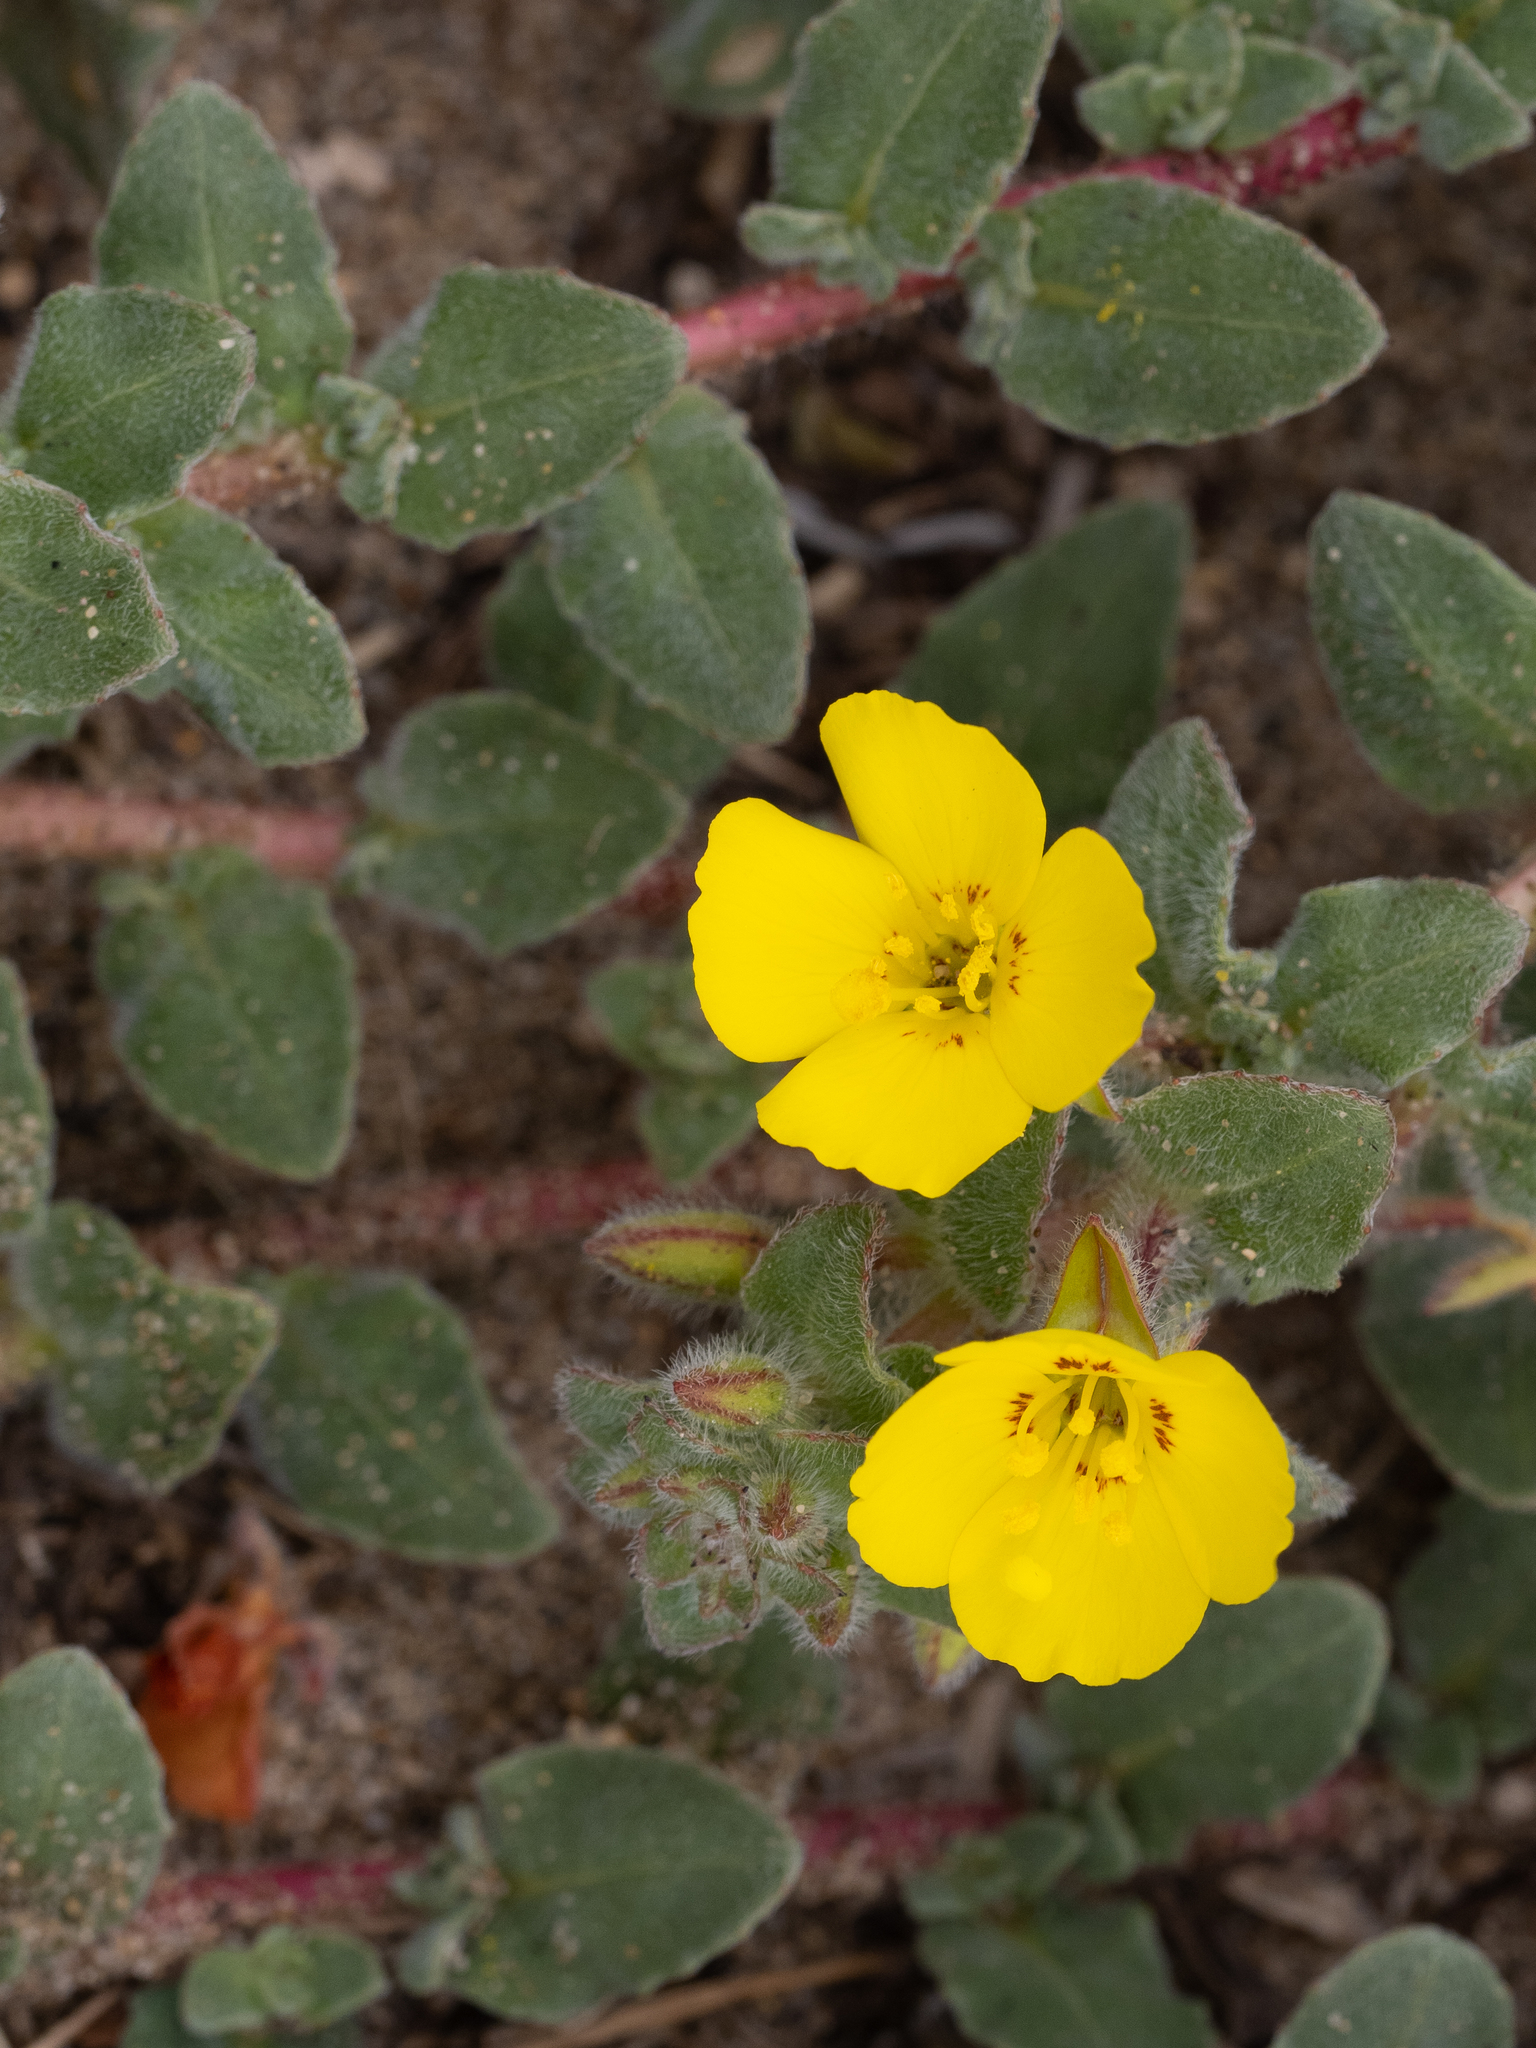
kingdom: Plantae
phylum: Tracheophyta
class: Magnoliopsida
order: Myrtales
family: Onagraceae
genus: Camissoniopsis
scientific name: Camissoniopsis cheiranthifolia
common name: Beach suncup
